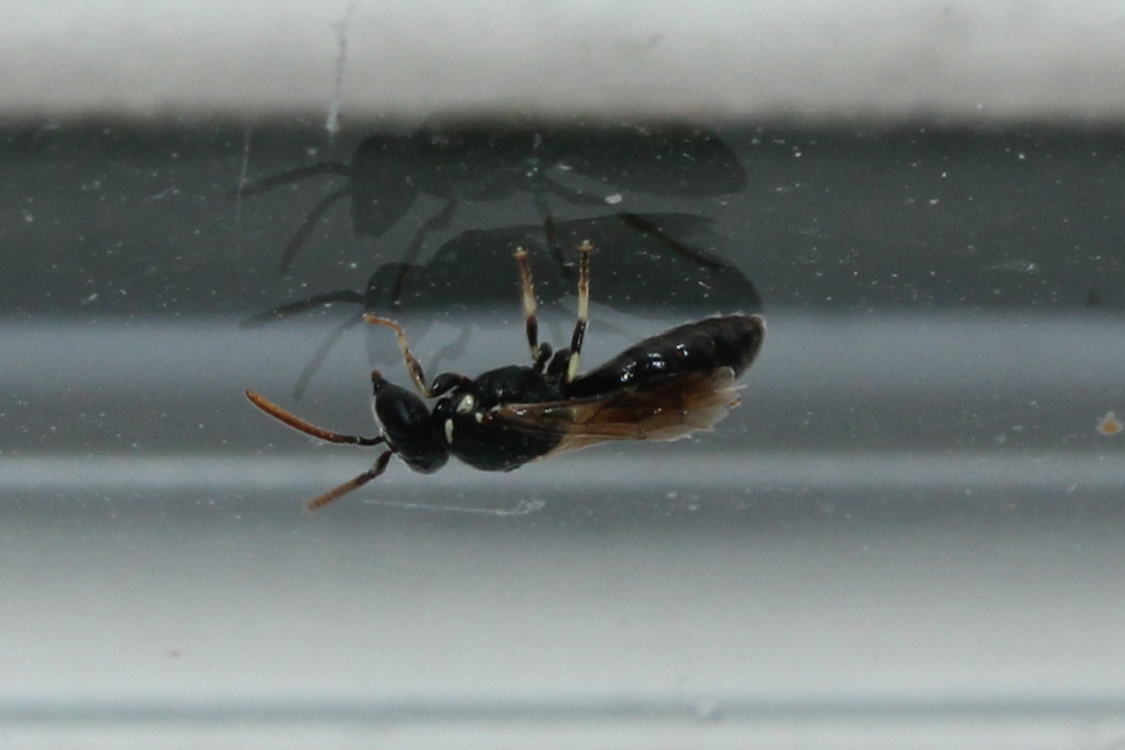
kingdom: Animalia
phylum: Arthropoda
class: Insecta
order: Hymenoptera
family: Colletidae
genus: Hylaeus
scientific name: Hylaeus leptocephalus
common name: Slender-faced masked bee
